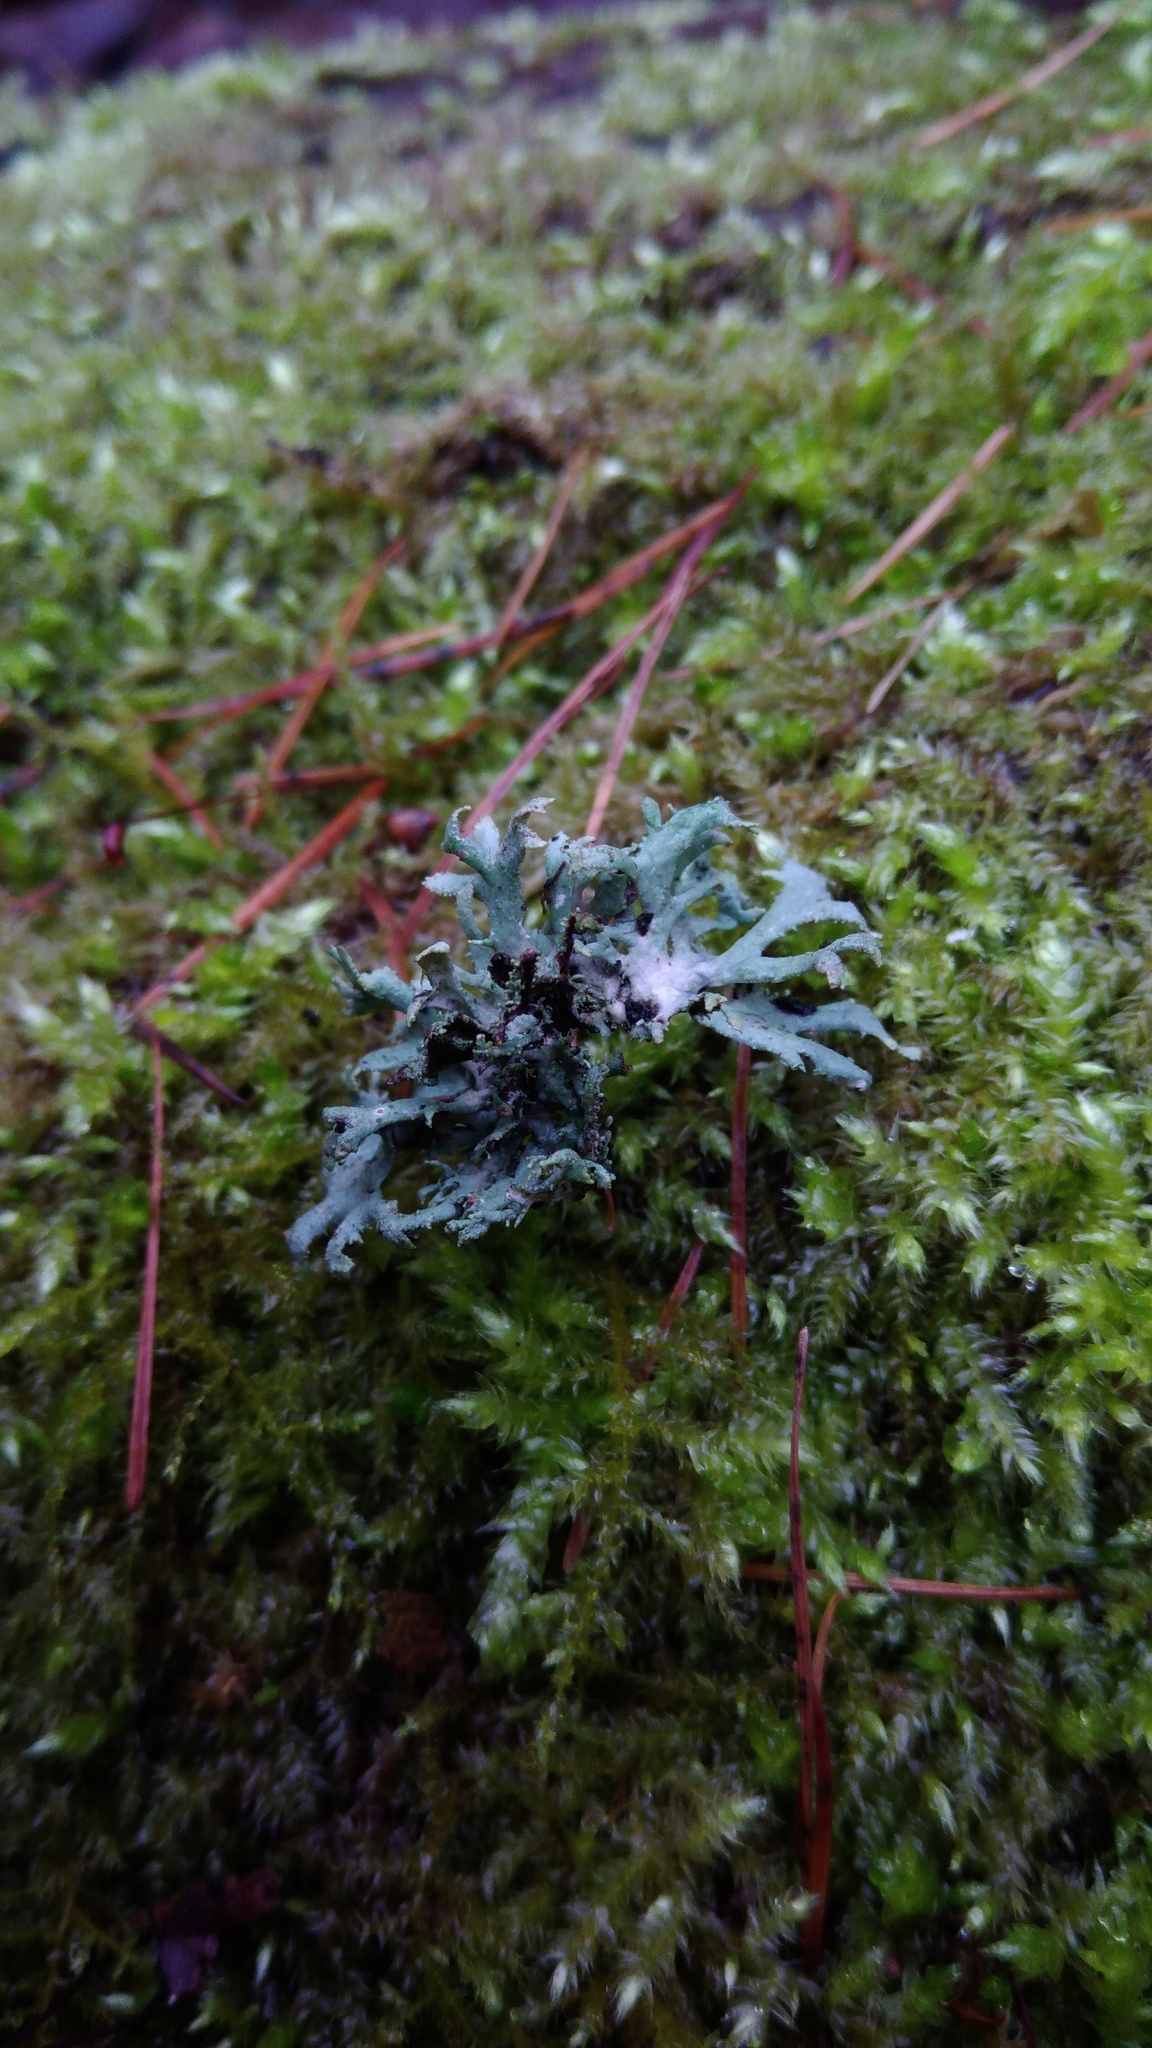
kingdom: Fungi
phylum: Ascomycota
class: Lecanoromycetes
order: Lecanorales
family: Parmeliaceae
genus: Pseudevernia
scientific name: Pseudevernia furfuracea
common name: Tree moss
